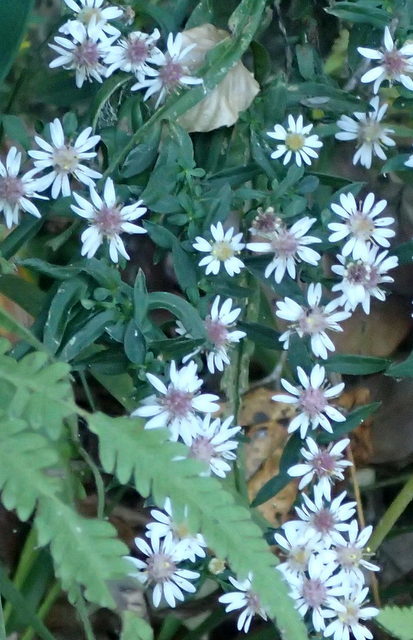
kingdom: Plantae
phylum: Tracheophyta
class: Magnoliopsida
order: Asterales
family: Asteraceae
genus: Symphyotrichum
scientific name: Symphyotrichum lateriflorum
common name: Calico aster
